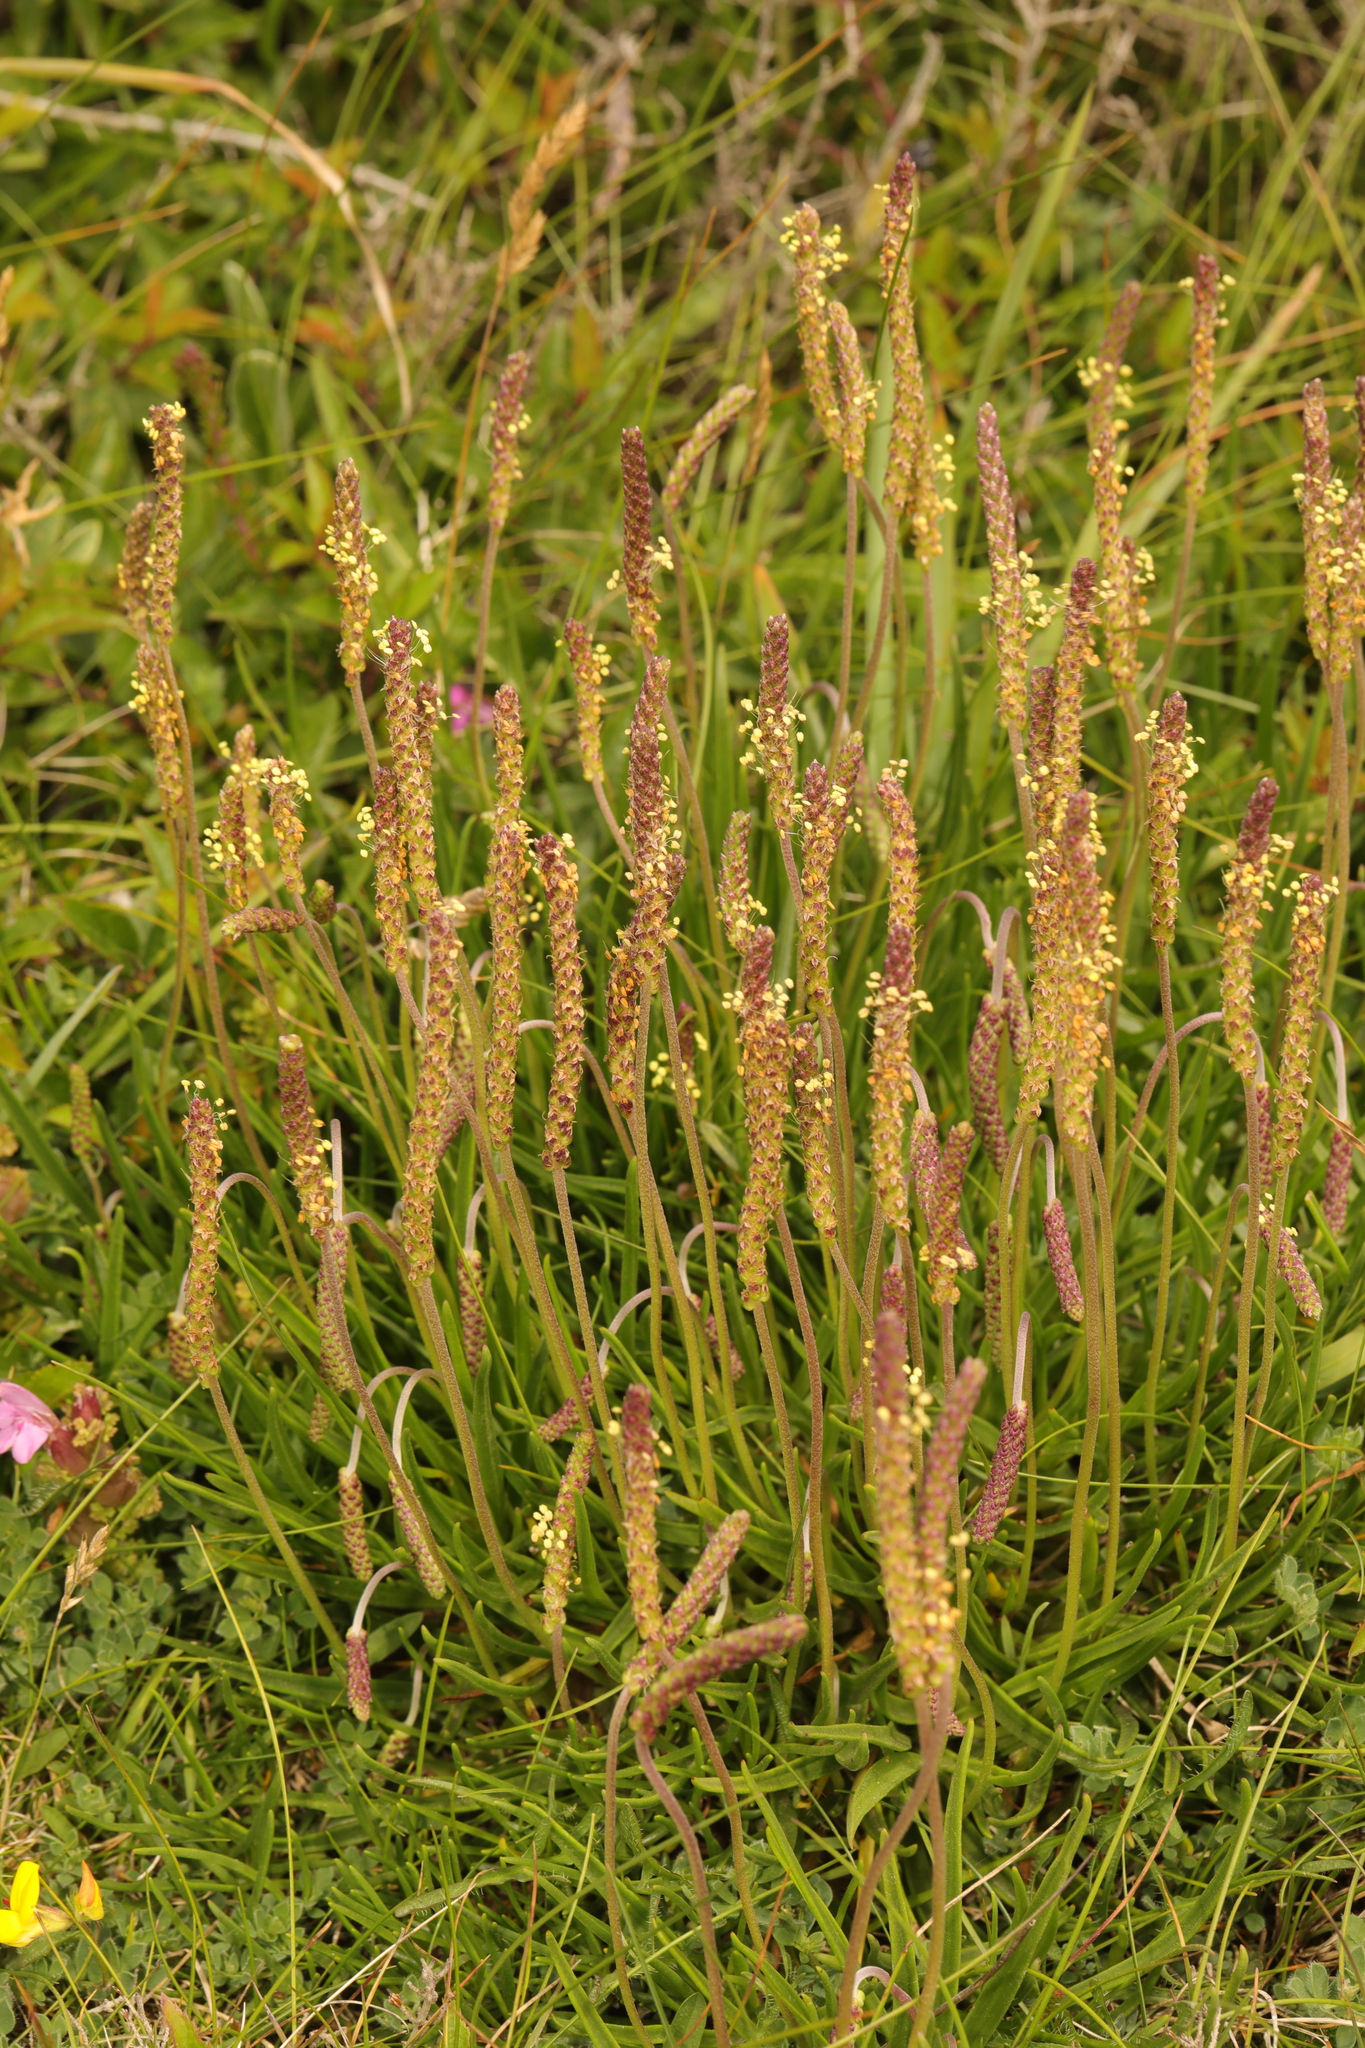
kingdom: Plantae
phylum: Tracheophyta
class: Magnoliopsida
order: Lamiales
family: Plantaginaceae
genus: Plantago
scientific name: Plantago maritima
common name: Sea plantain
